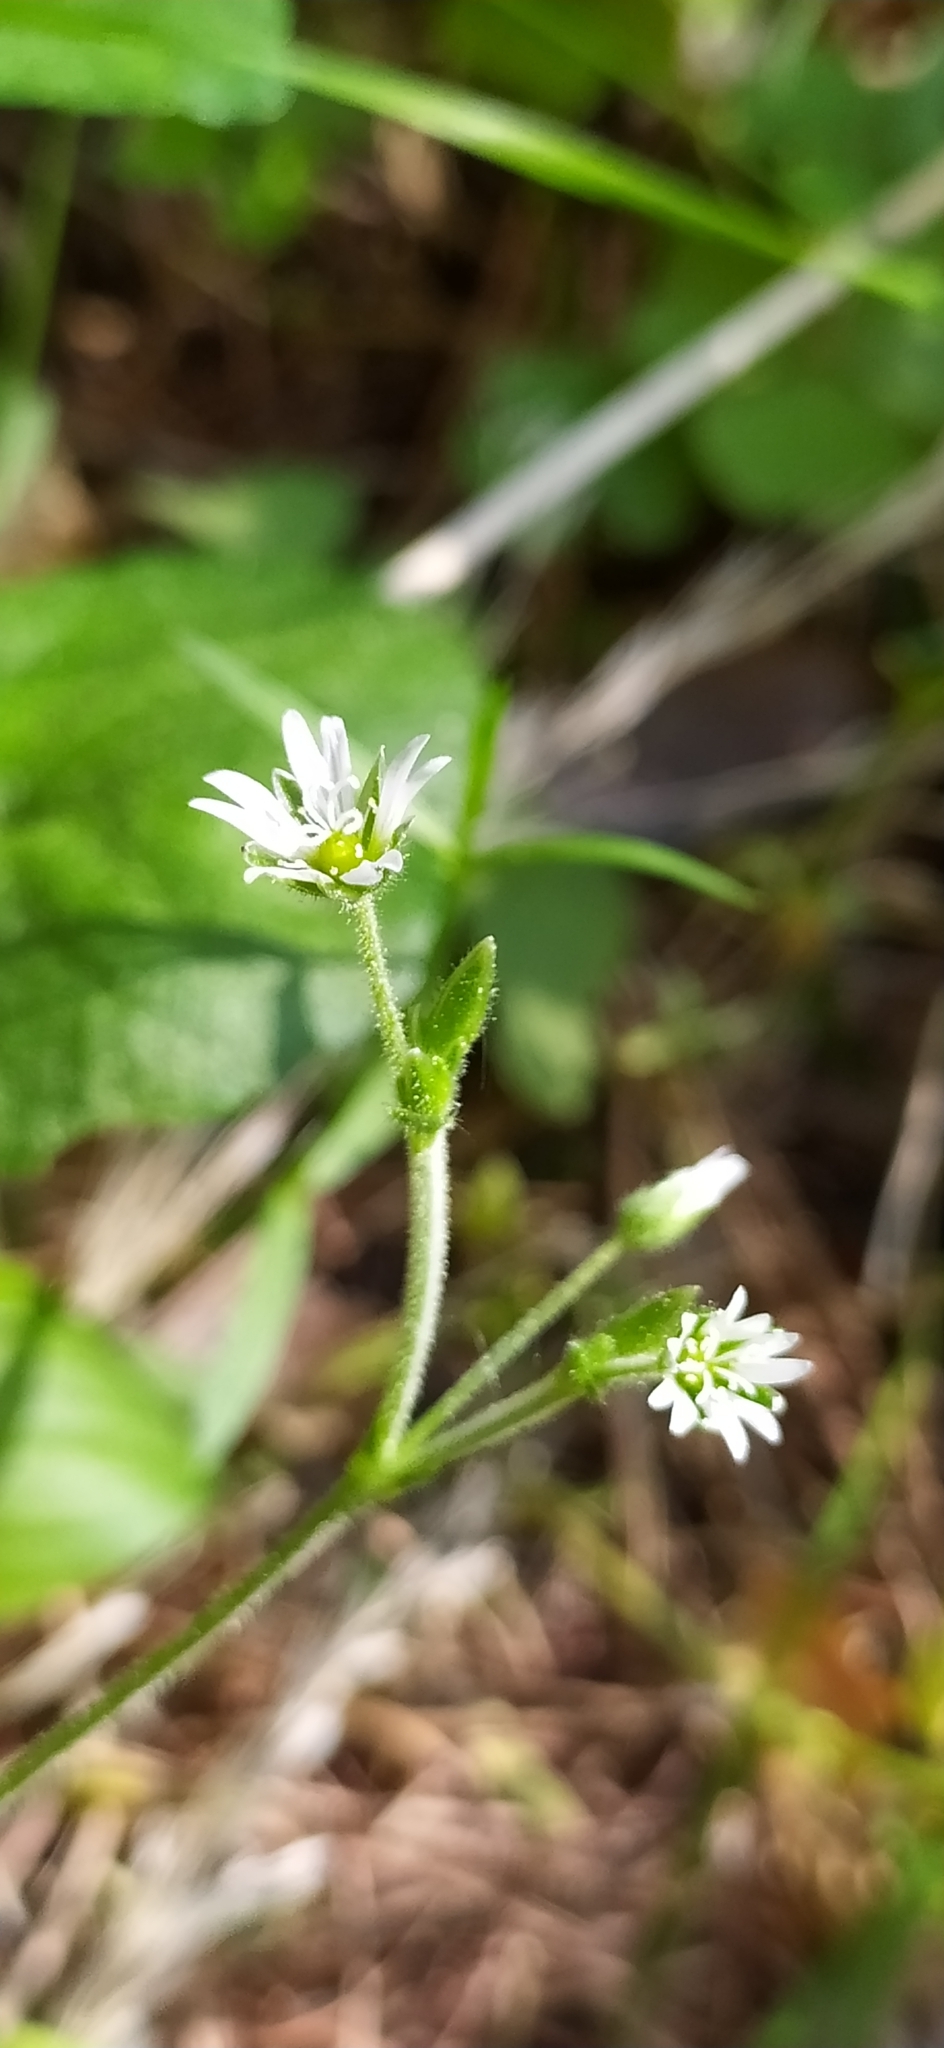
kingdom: Plantae
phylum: Tracheophyta
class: Magnoliopsida
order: Caryophyllales
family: Caryophyllaceae
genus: Cerastium
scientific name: Cerastium holosteoides
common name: Big chickweed
